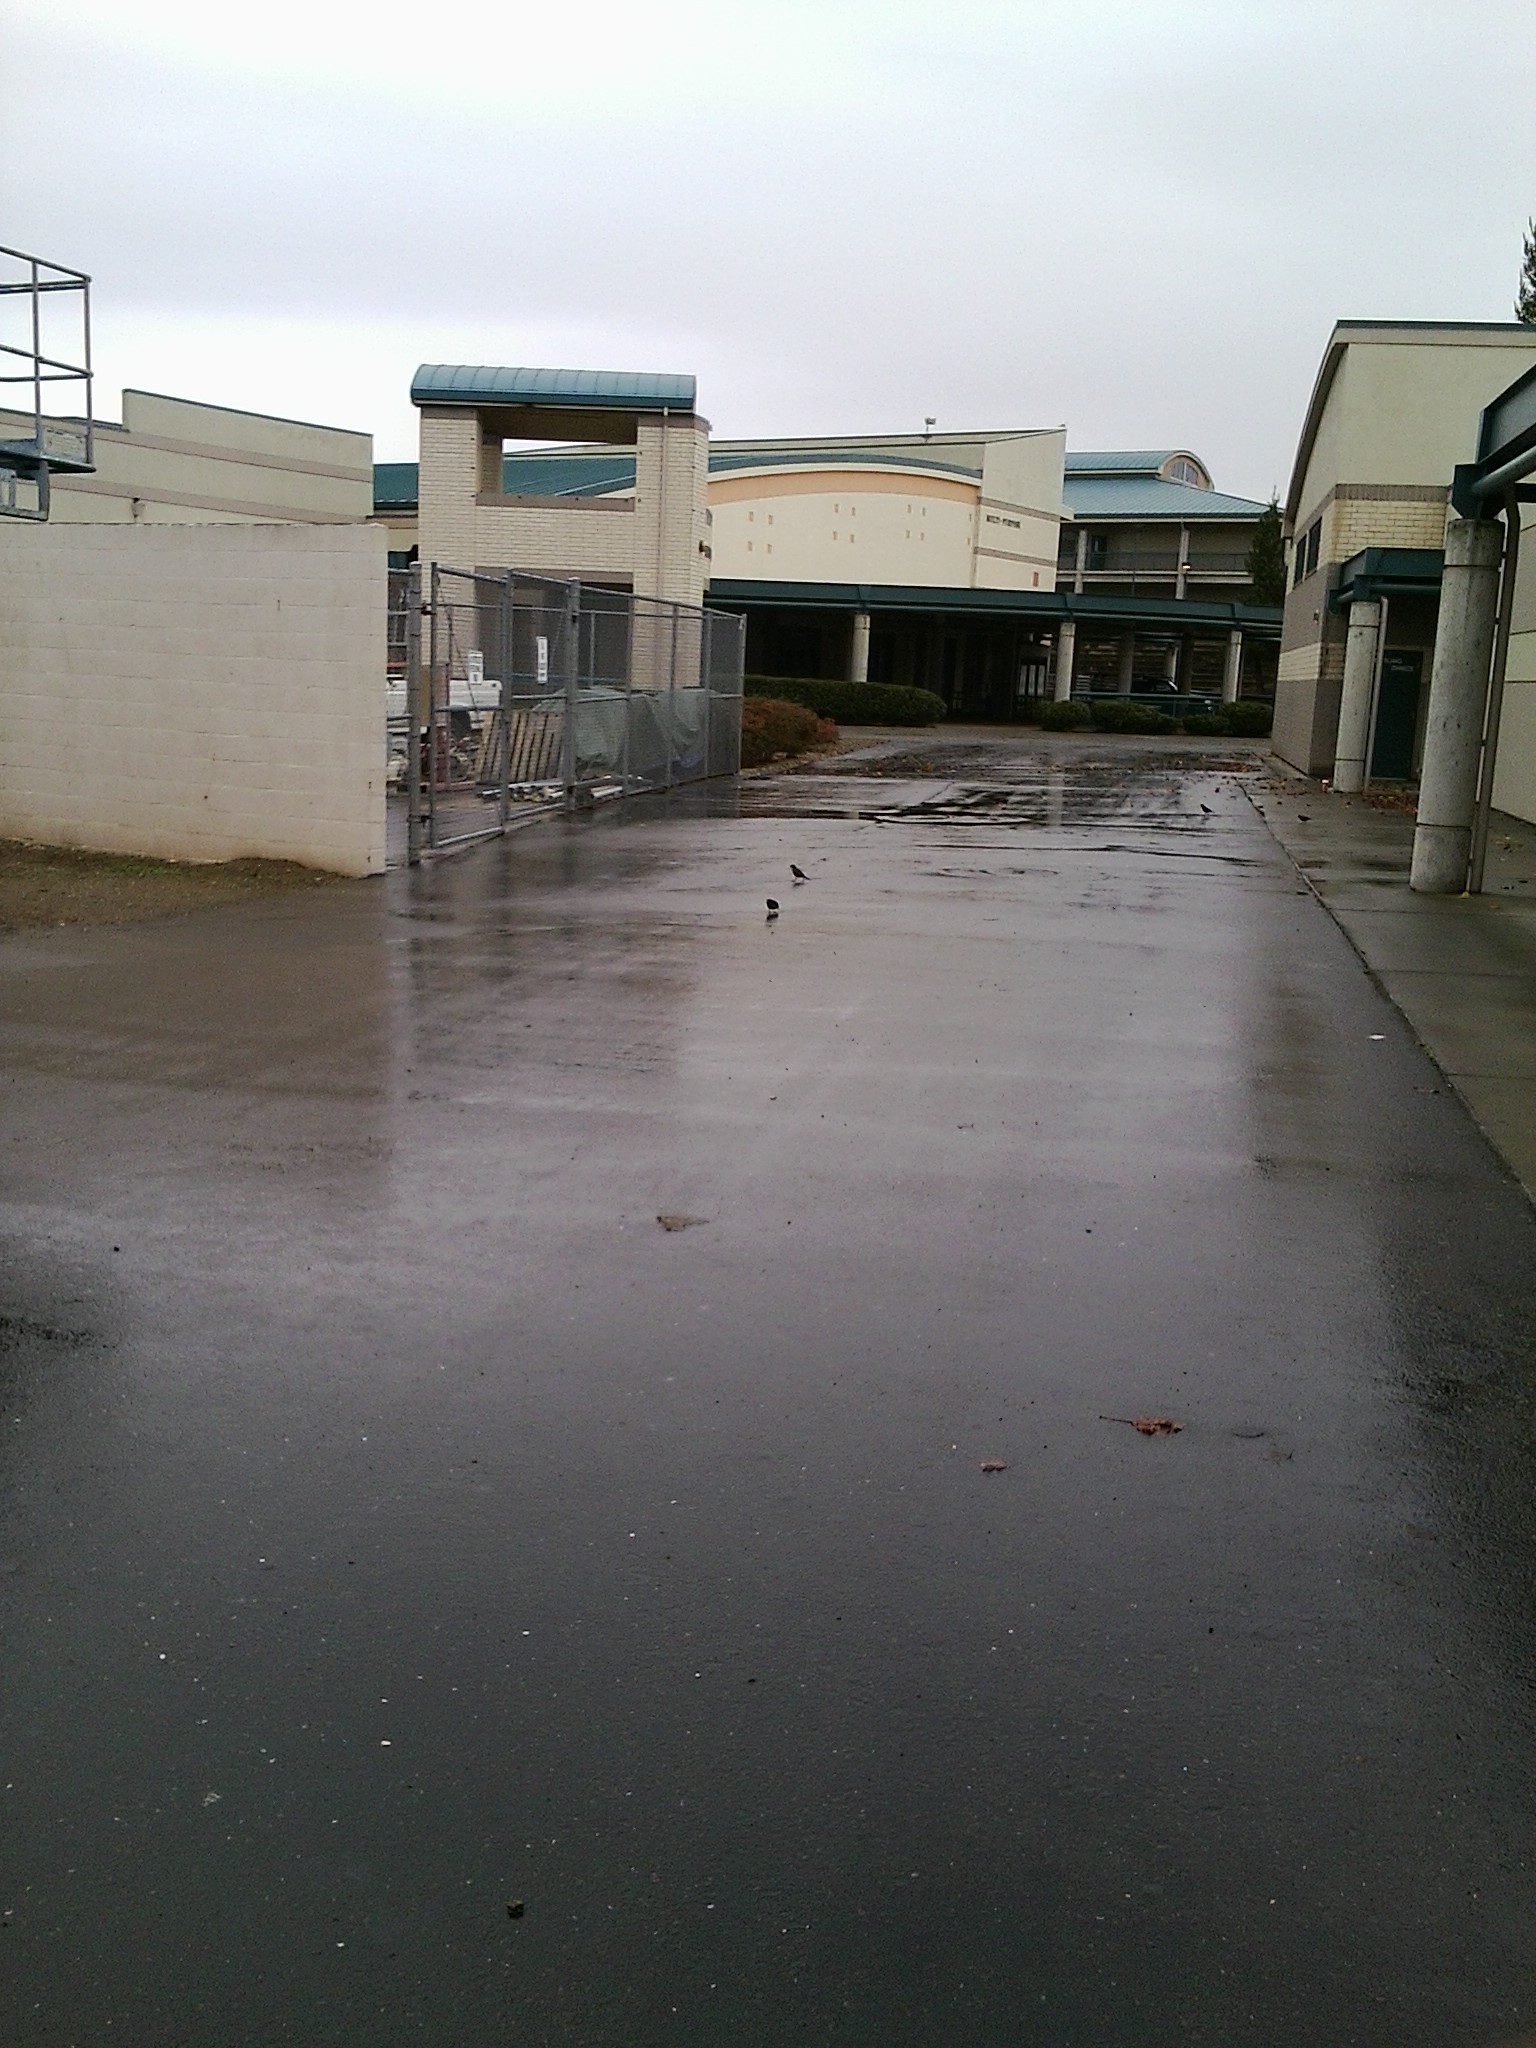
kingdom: Animalia
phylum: Chordata
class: Aves
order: Passeriformes
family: Icteridae
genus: Euphagus
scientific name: Euphagus cyanocephalus
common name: Brewer's blackbird
